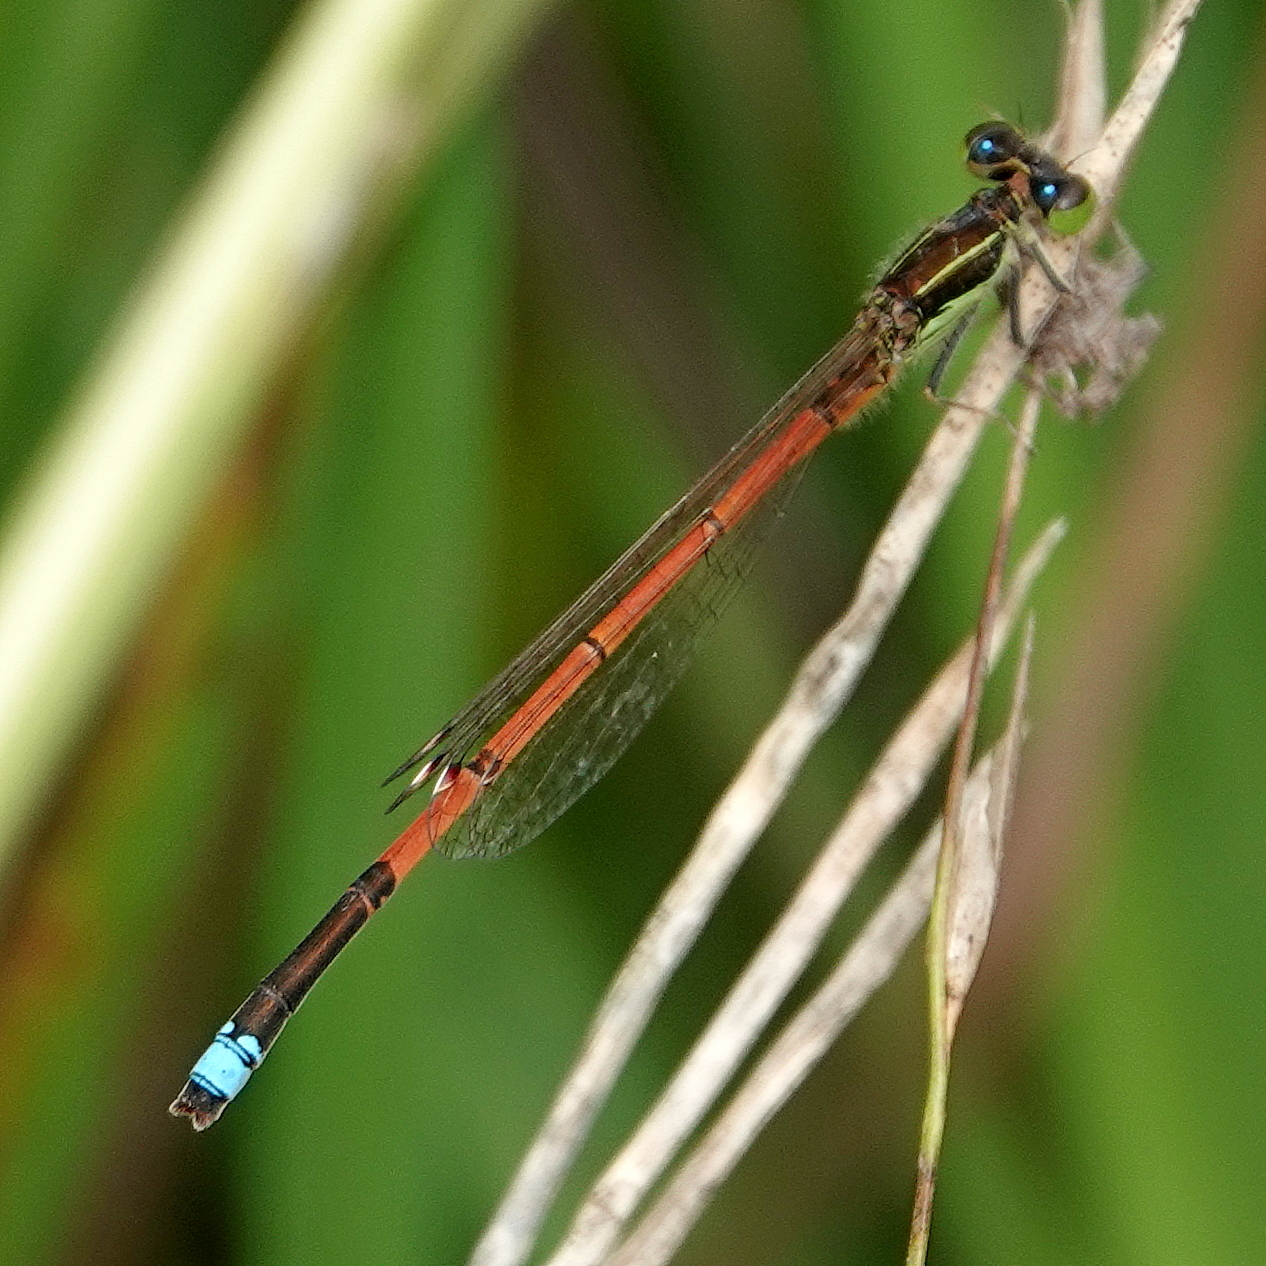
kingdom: Animalia
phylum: Arthropoda
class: Insecta
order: Odonata
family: Coenagrionidae
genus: Ischnura
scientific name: Ischnura aurora
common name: Gossamer damselfly
